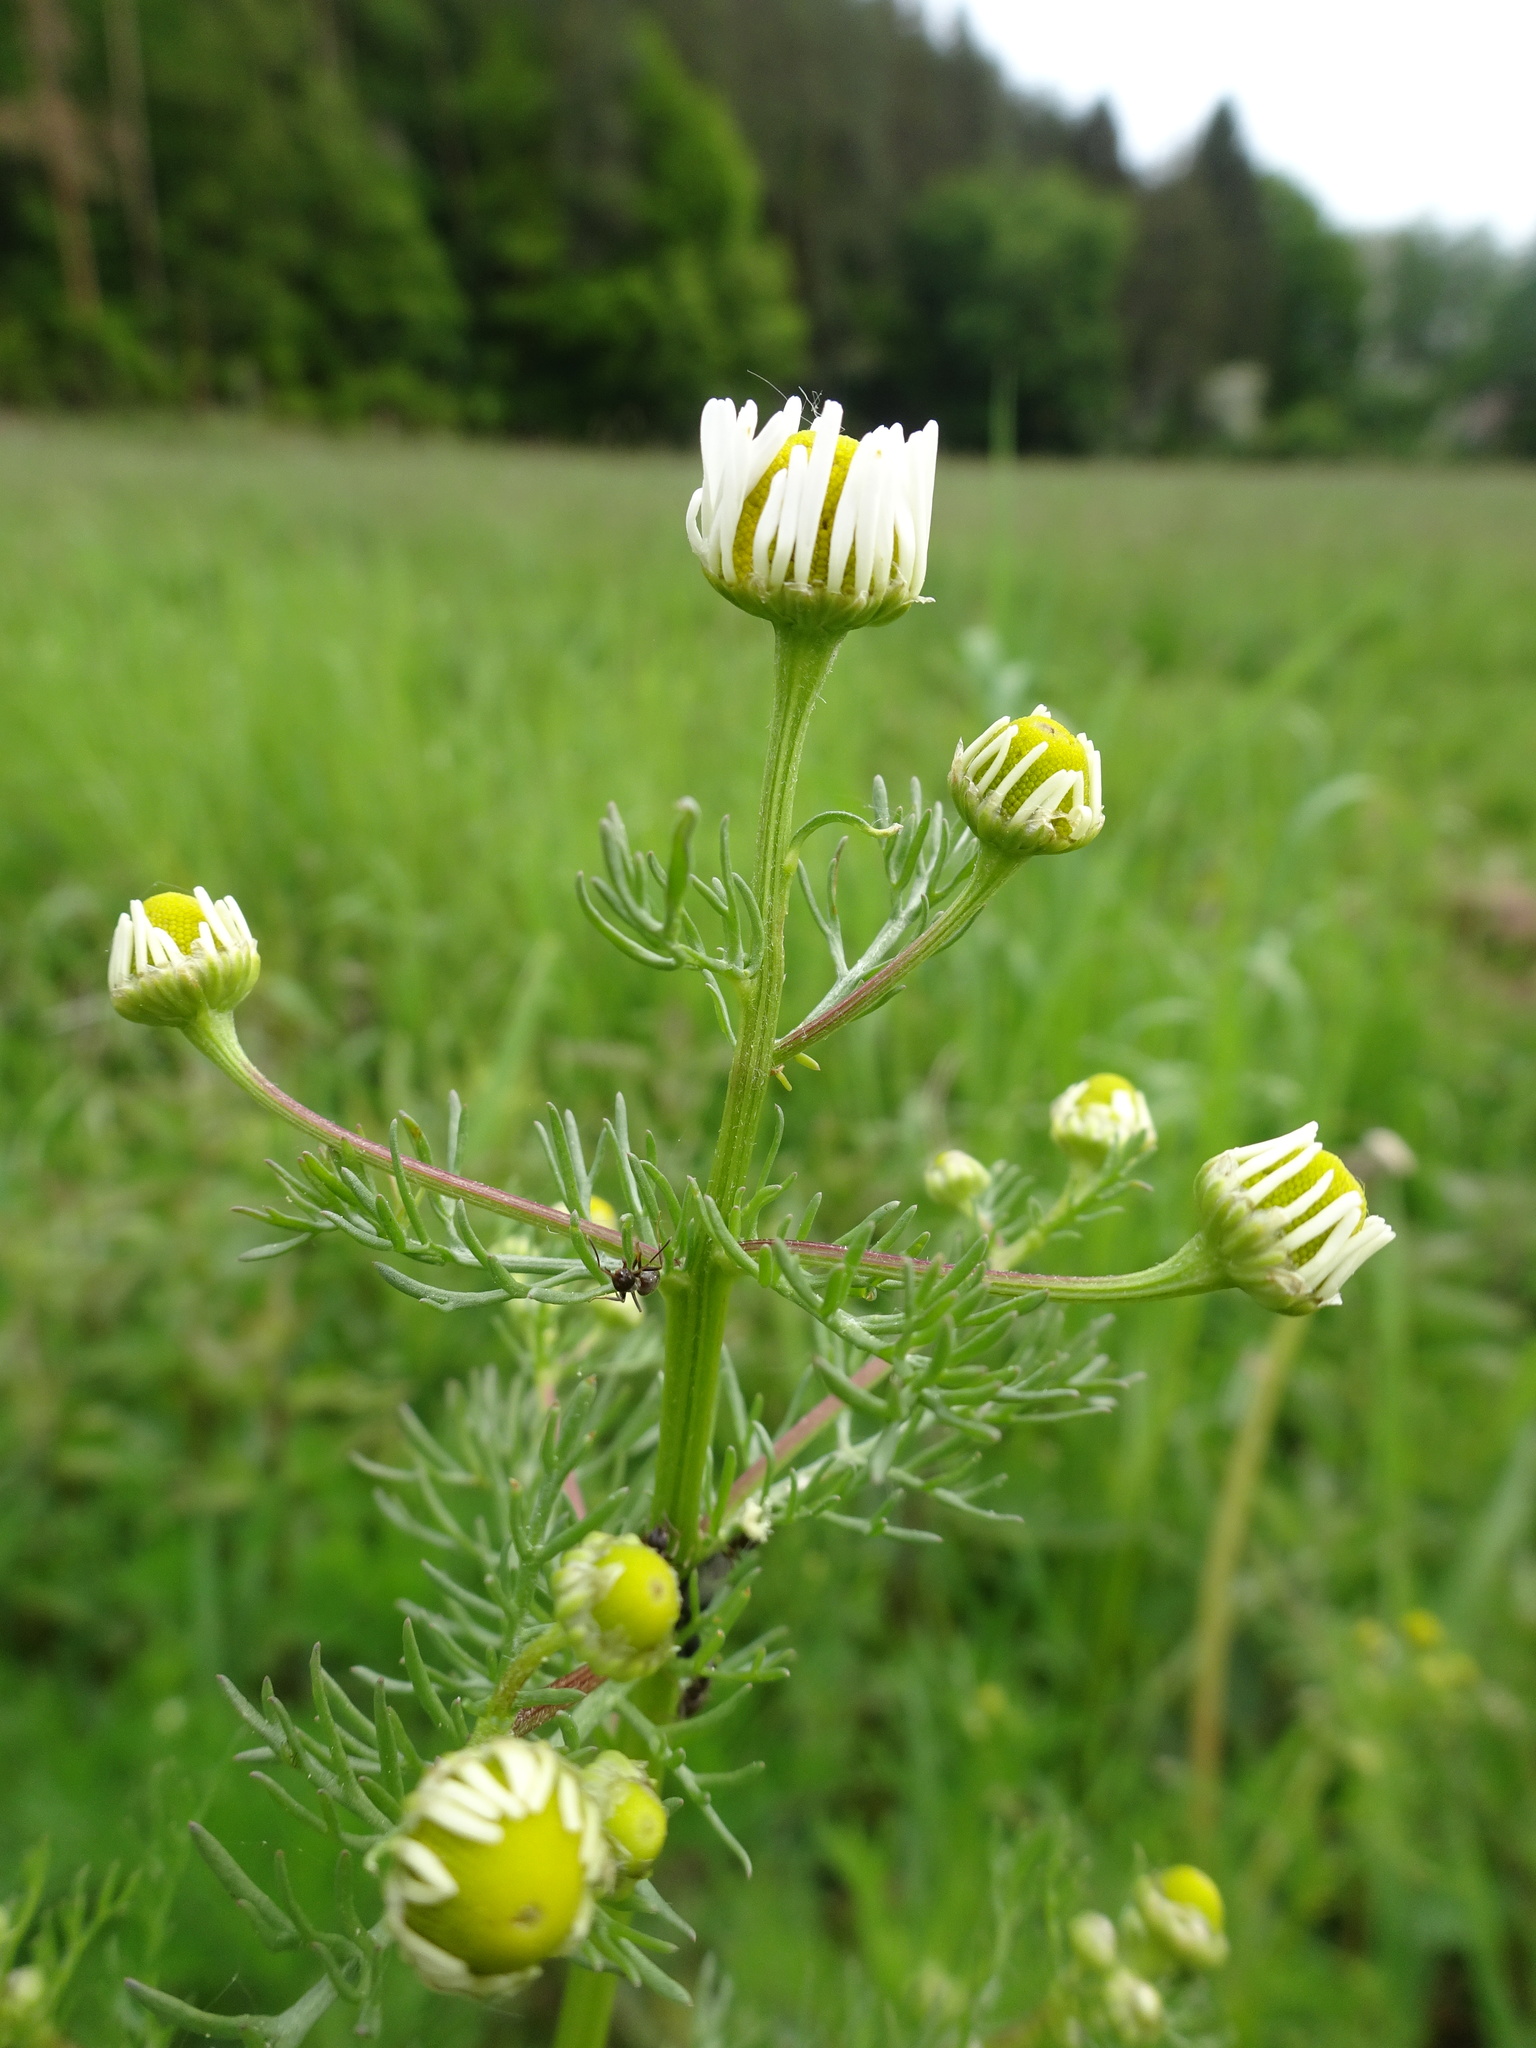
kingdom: Plantae
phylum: Tracheophyta
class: Magnoliopsida
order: Asterales
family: Asteraceae
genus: Tripleurospermum
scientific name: Tripleurospermum inodorum
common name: Scentless mayweed
